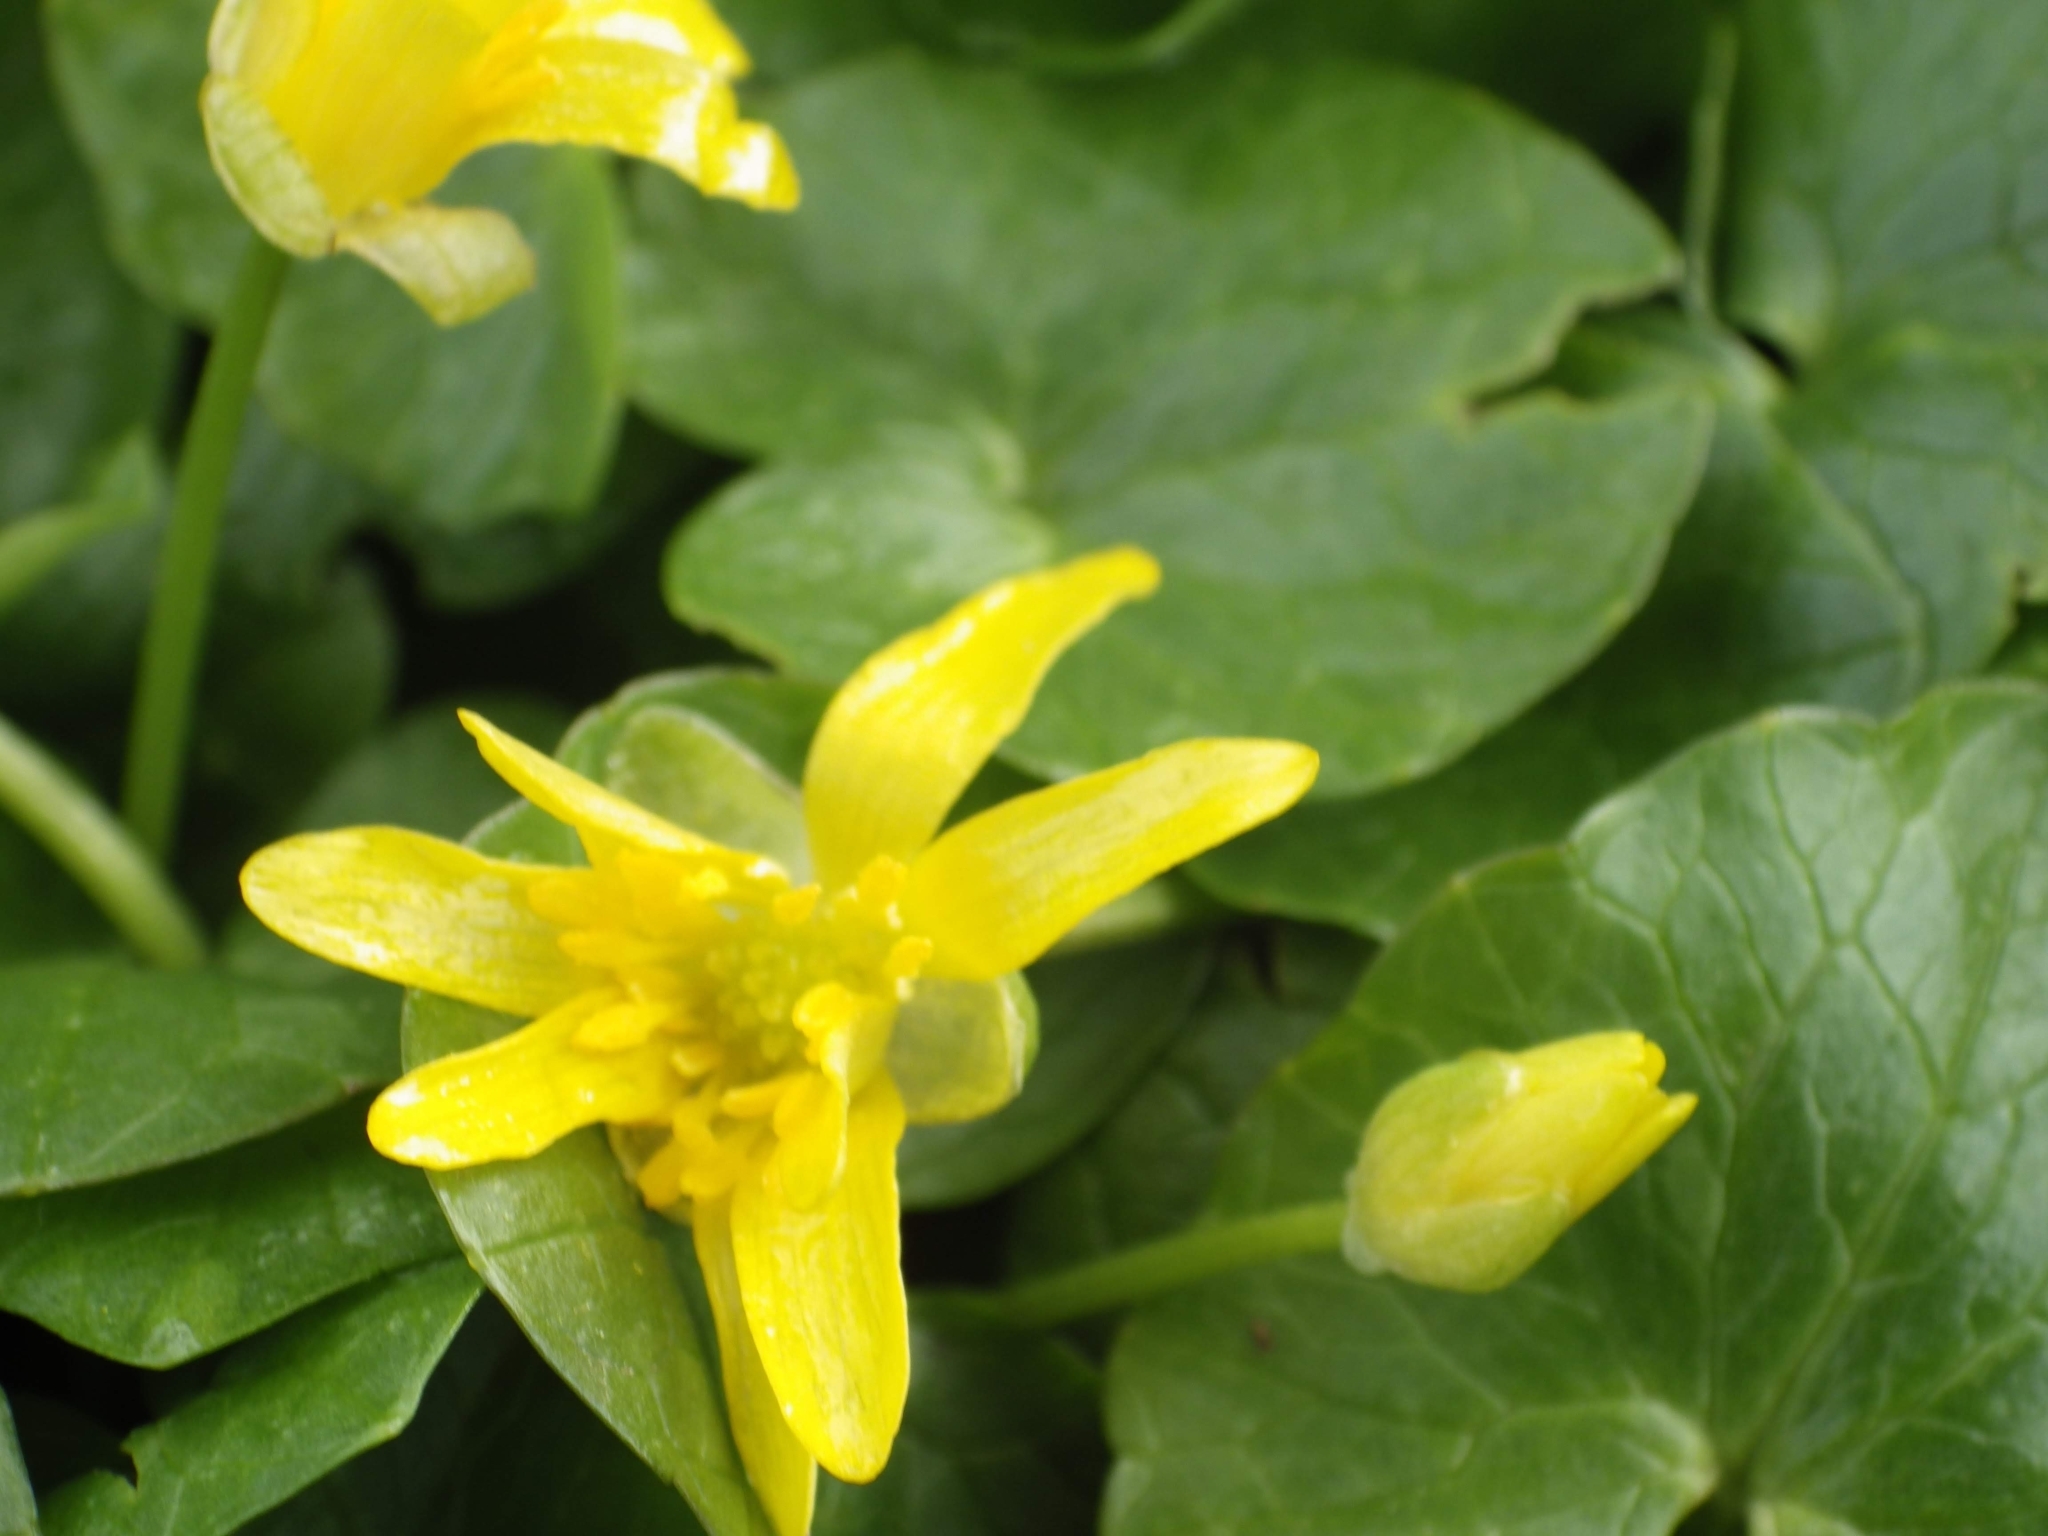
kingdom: Plantae
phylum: Tracheophyta
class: Magnoliopsida
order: Ranunculales
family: Ranunculaceae
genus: Ficaria
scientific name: Ficaria verna
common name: Lesser celandine
